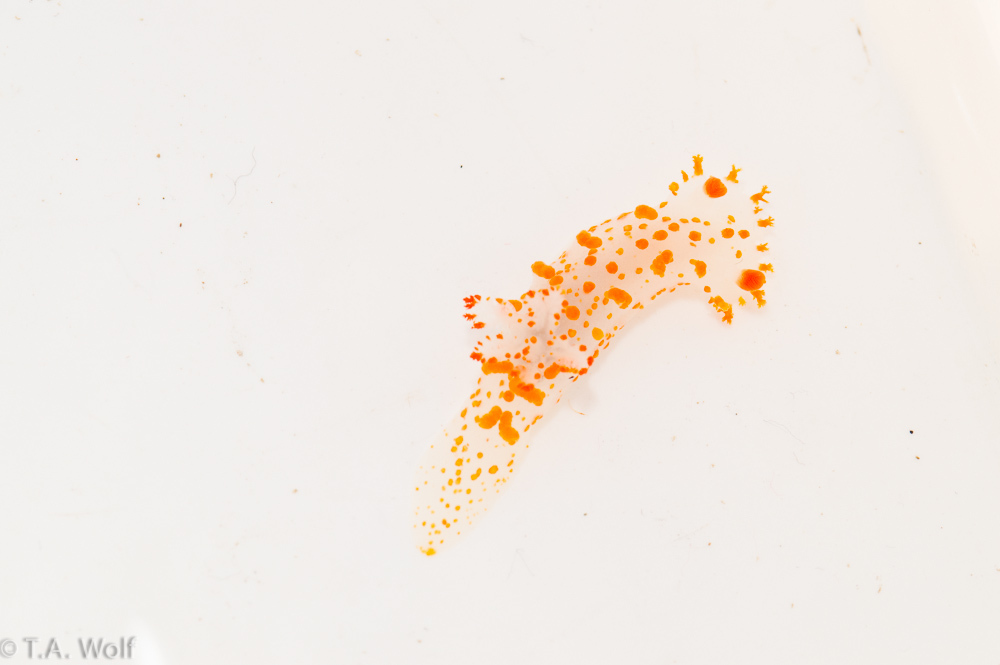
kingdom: Animalia
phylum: Mollusca
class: Gastropoda
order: Nudibranchia
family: Polyceridae
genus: Triopha
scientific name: Triopha catalinae
